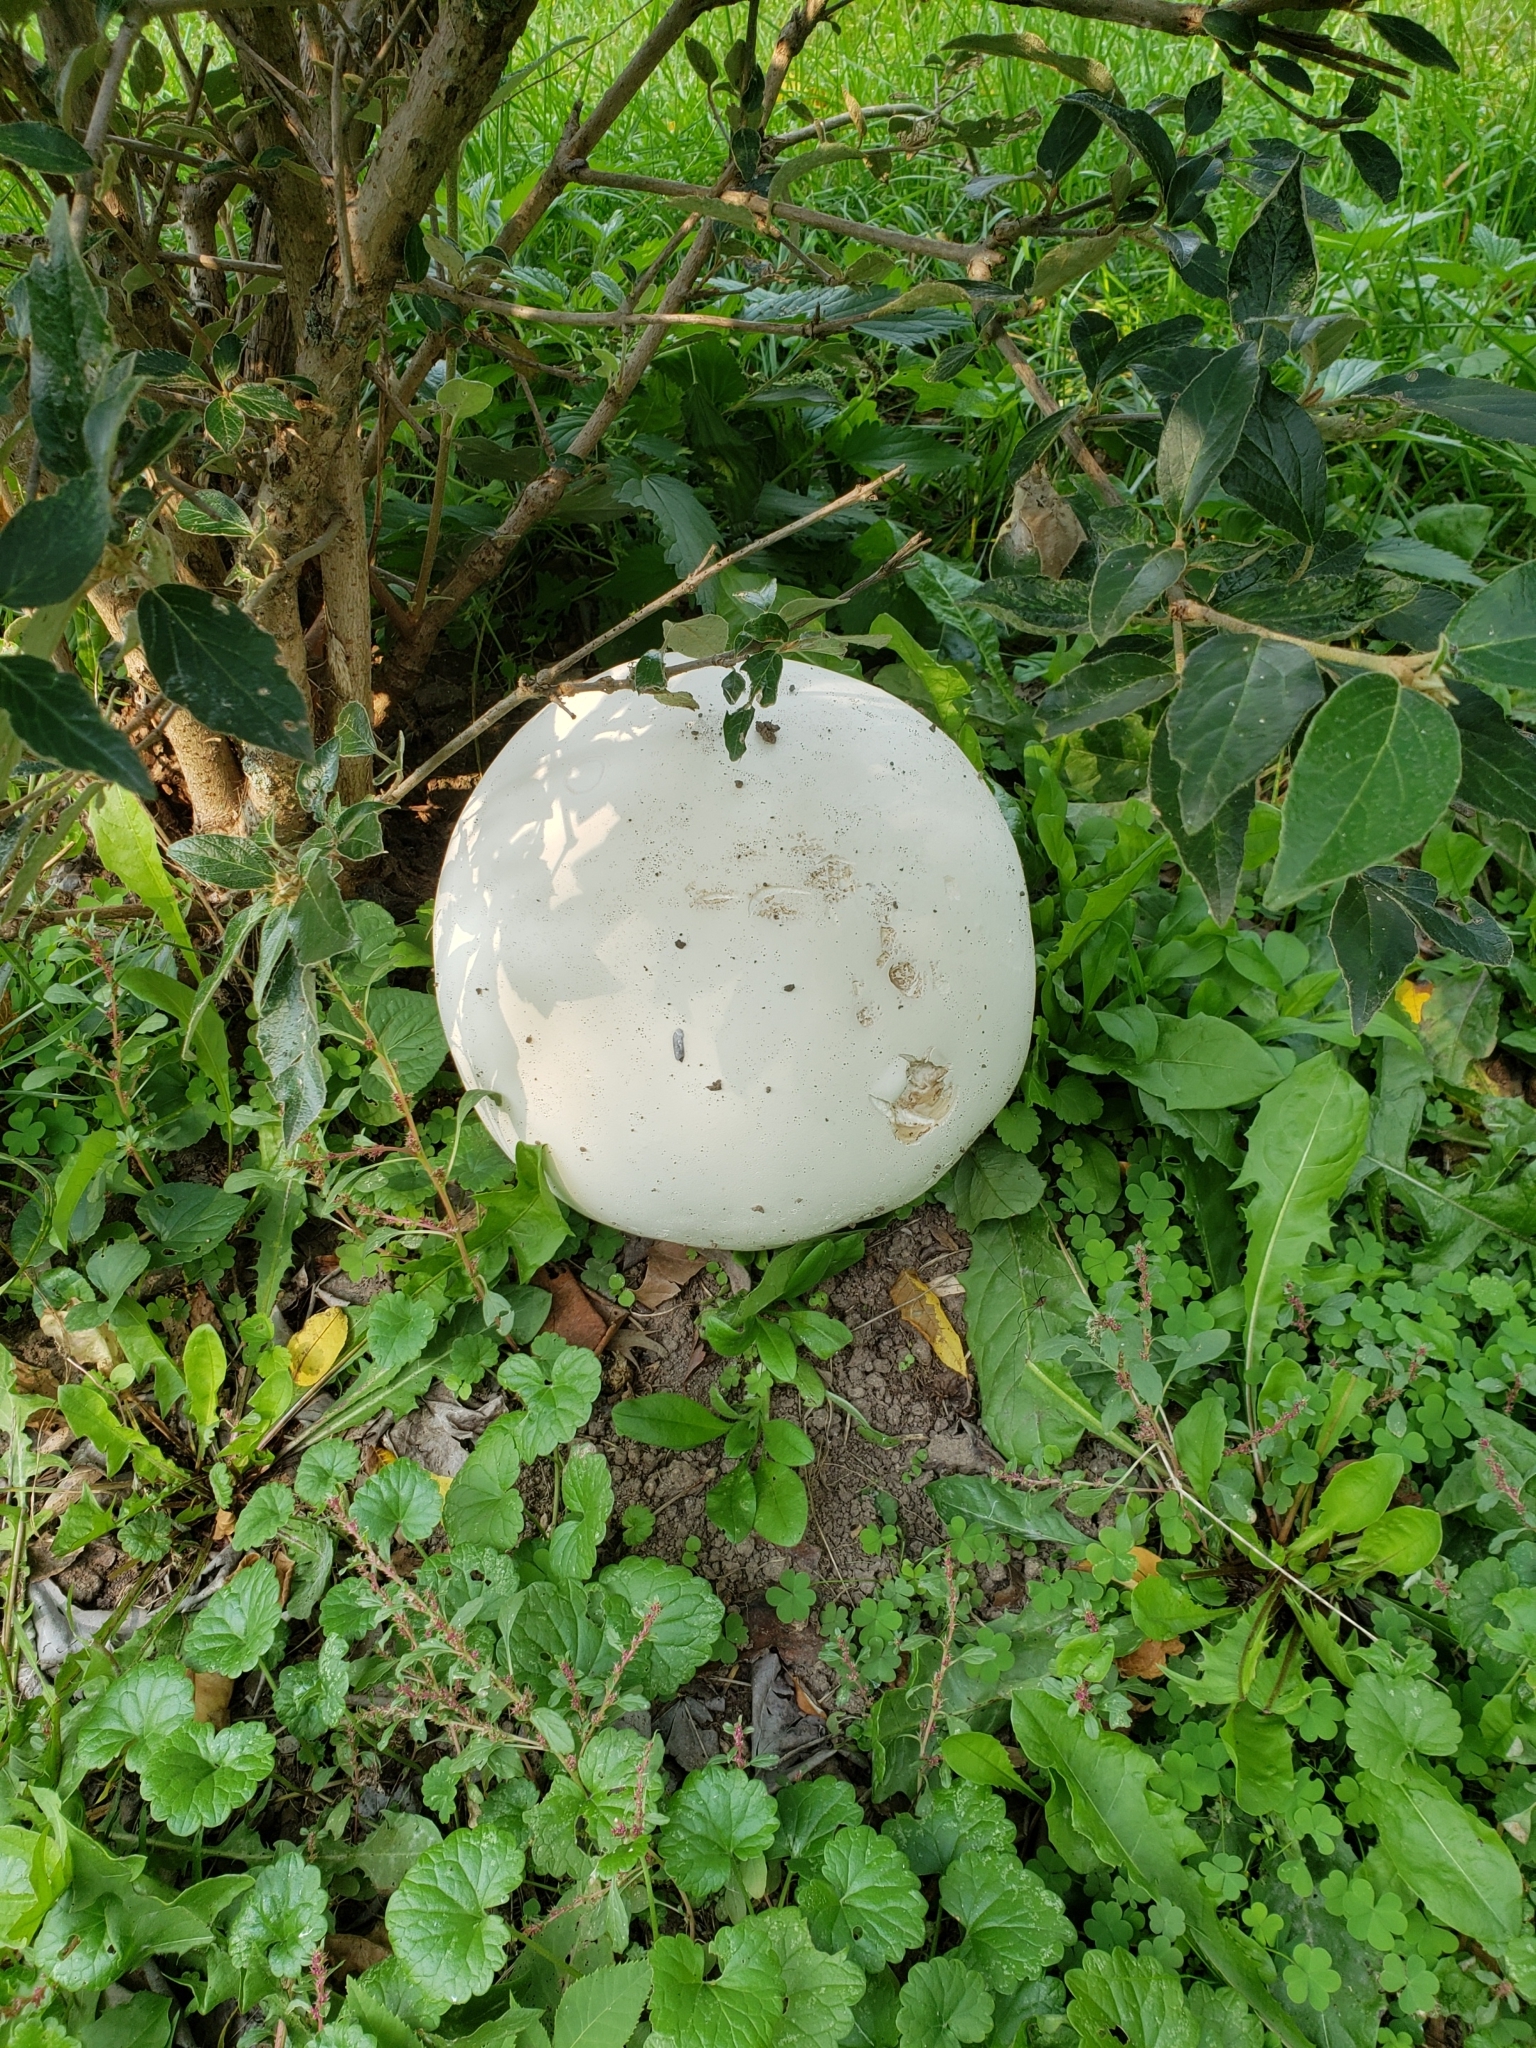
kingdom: Fungi
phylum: Basidiomycota
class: Agaricomycetes
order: Agaricales
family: Lycoperdaceae
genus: Calvatia
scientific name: Calvatia gigantea
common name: Giant puffball
